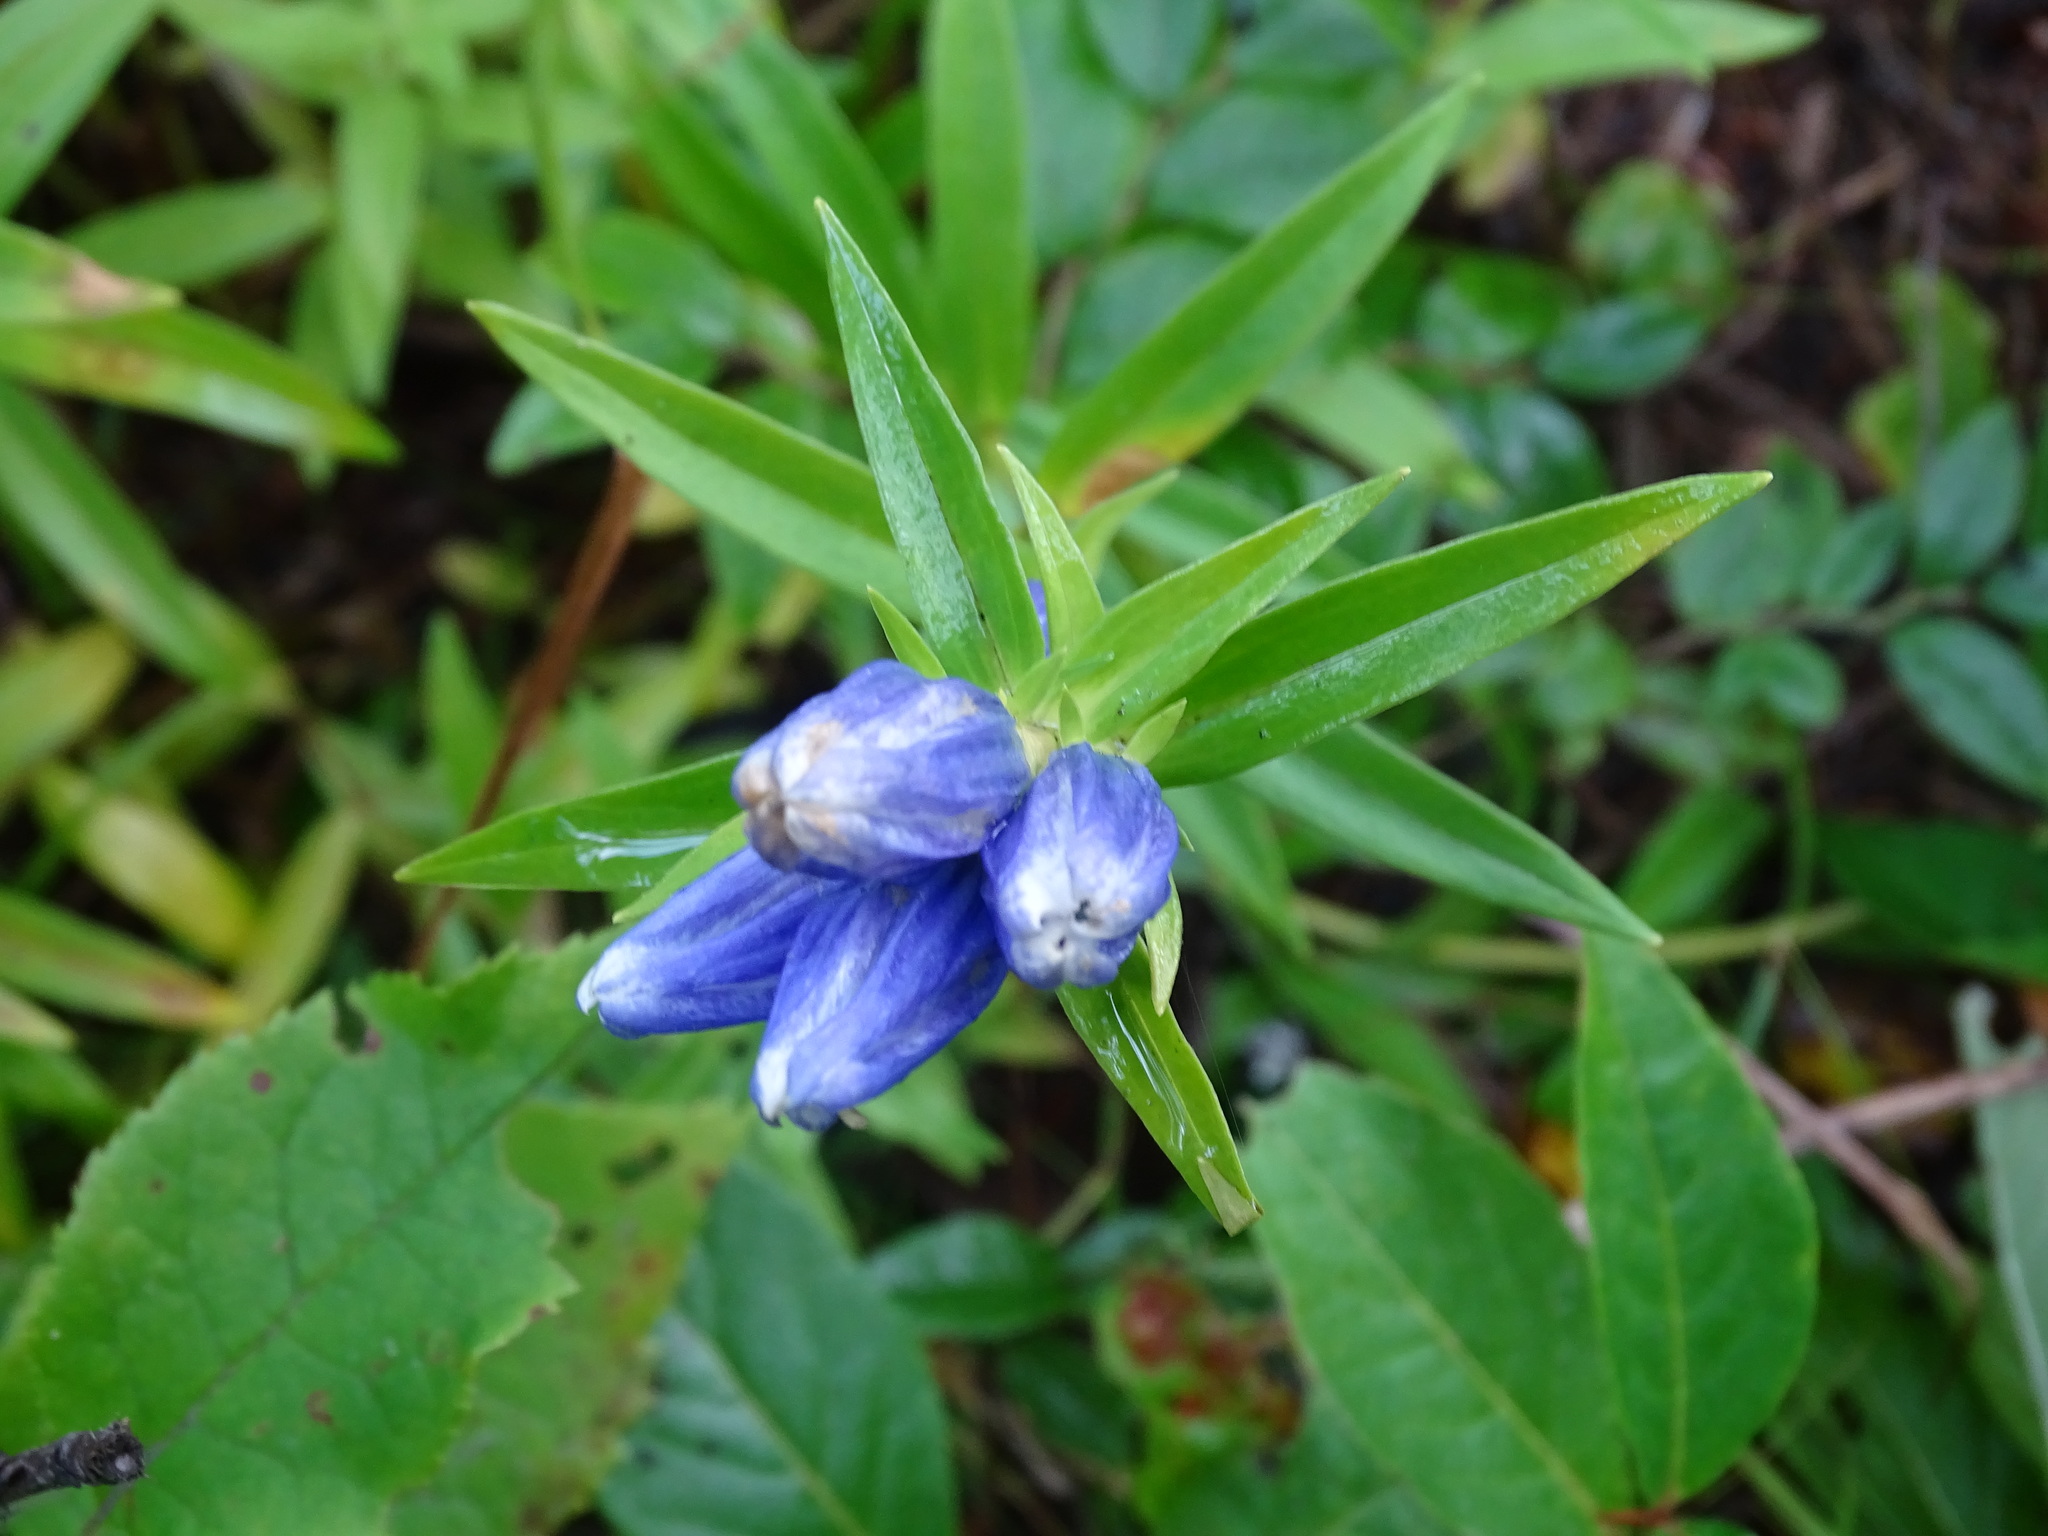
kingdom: Plantae
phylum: Tracheophyta
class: Magnoliopsida
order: Gentianales
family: Gentianaceae
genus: Gentiana
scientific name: Gentiana linearis
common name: Bastard gentian
